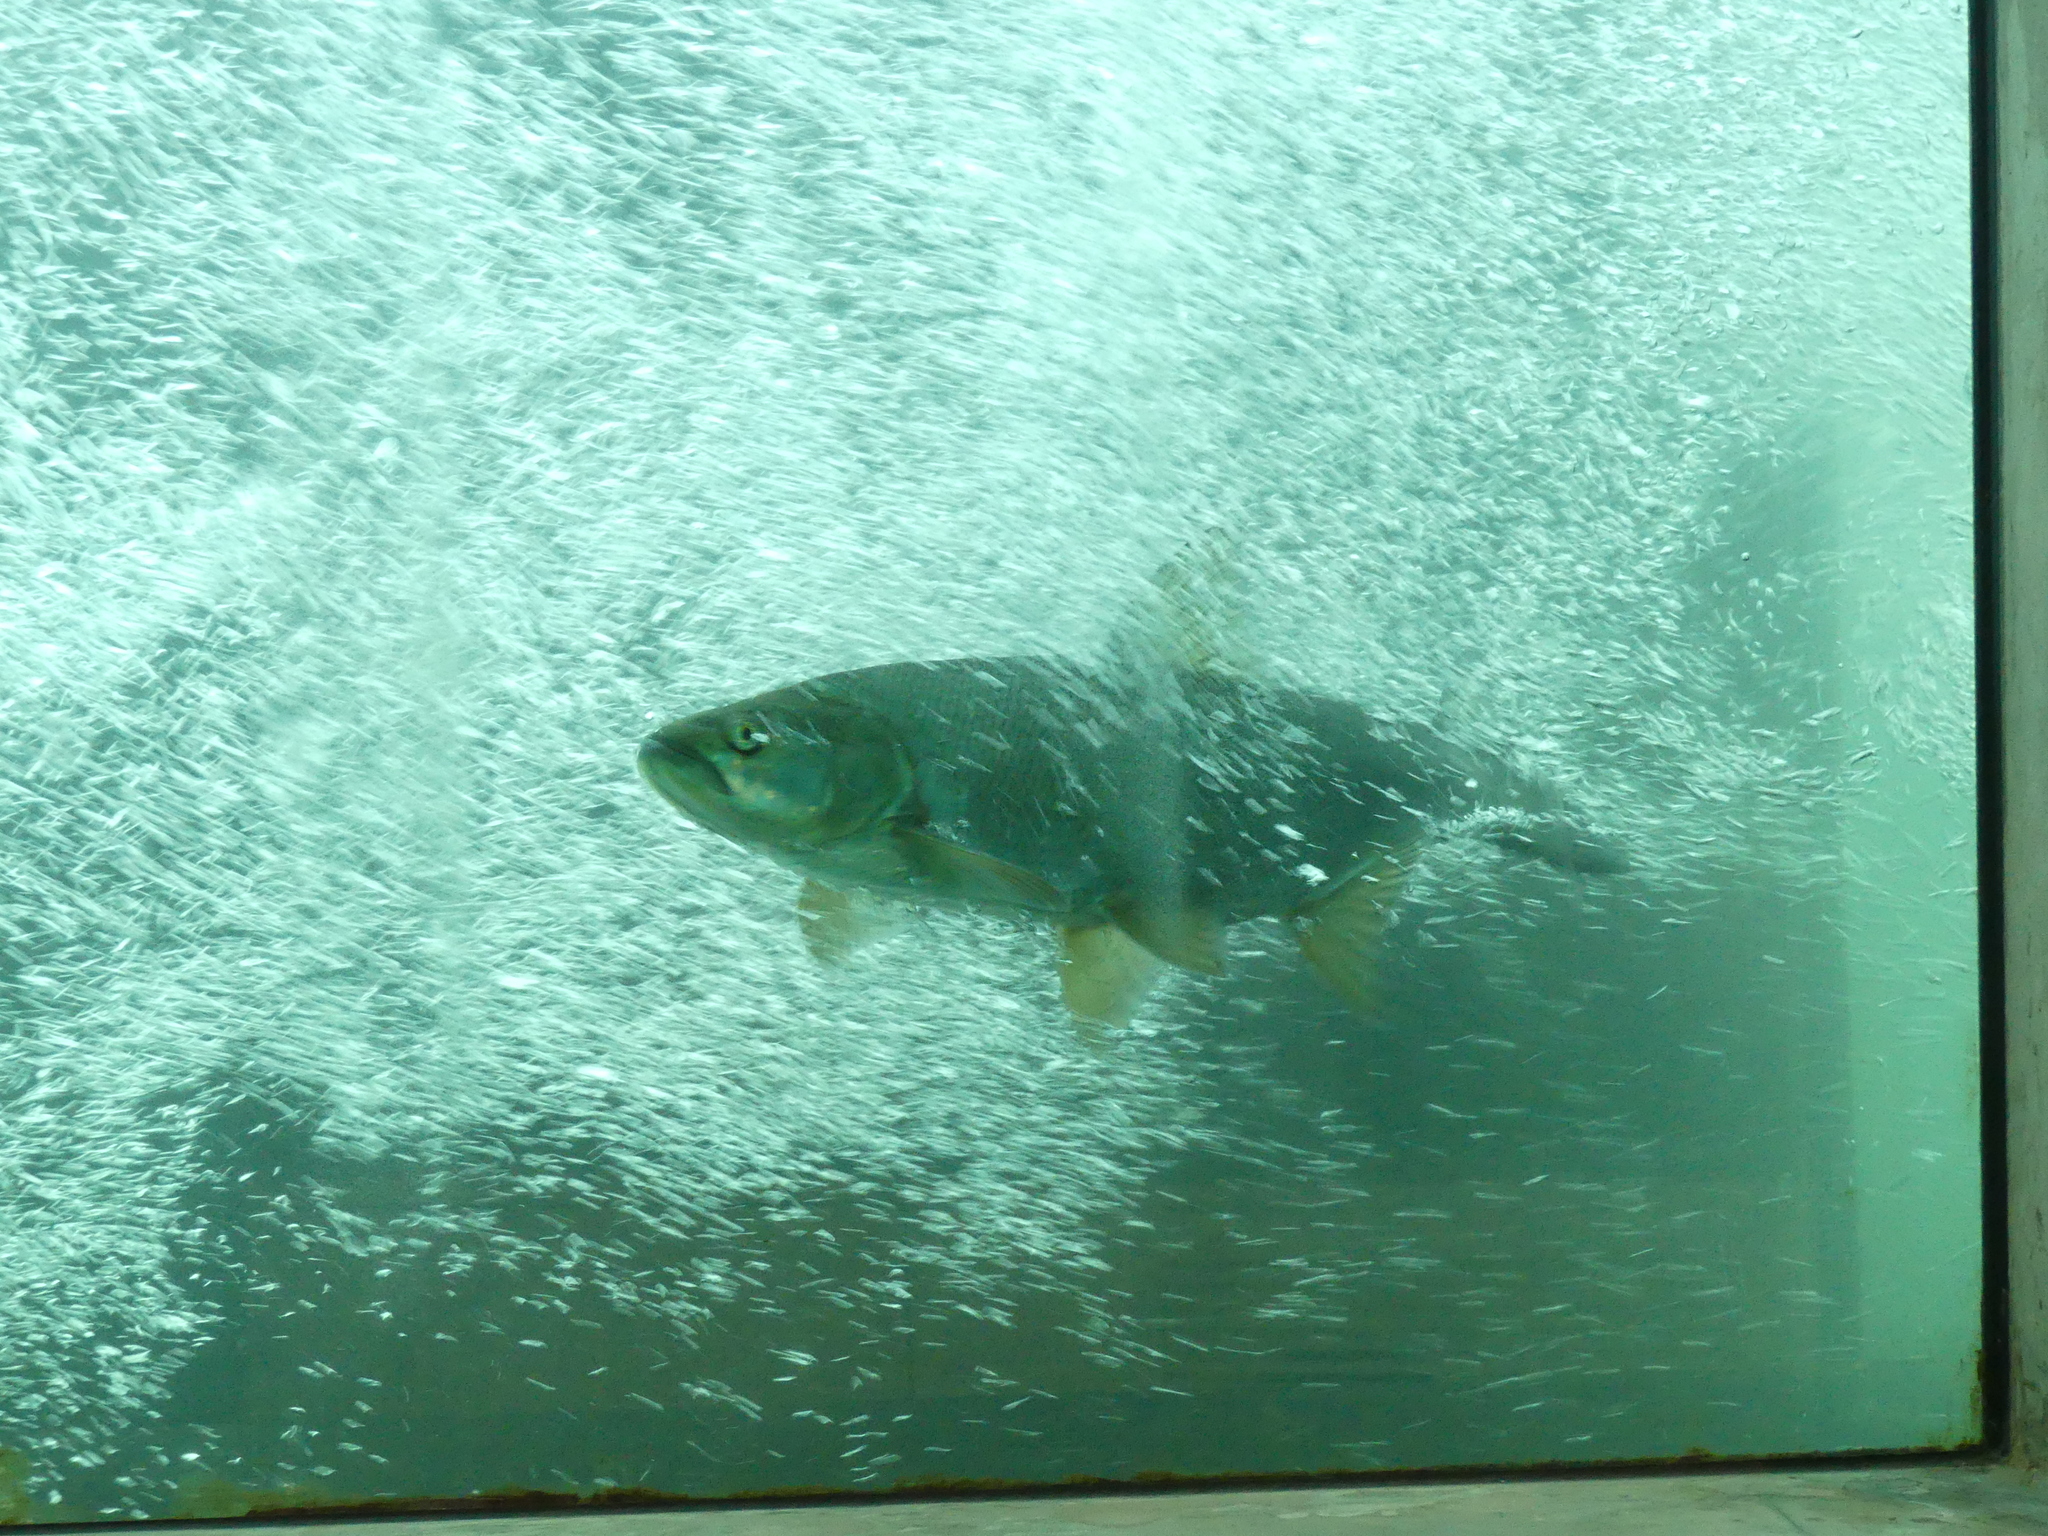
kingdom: Animalia
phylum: Chordata
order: Cypriniformes
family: Cyprinidae
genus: Leuciscus
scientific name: Leuciscus aspius
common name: Asp
